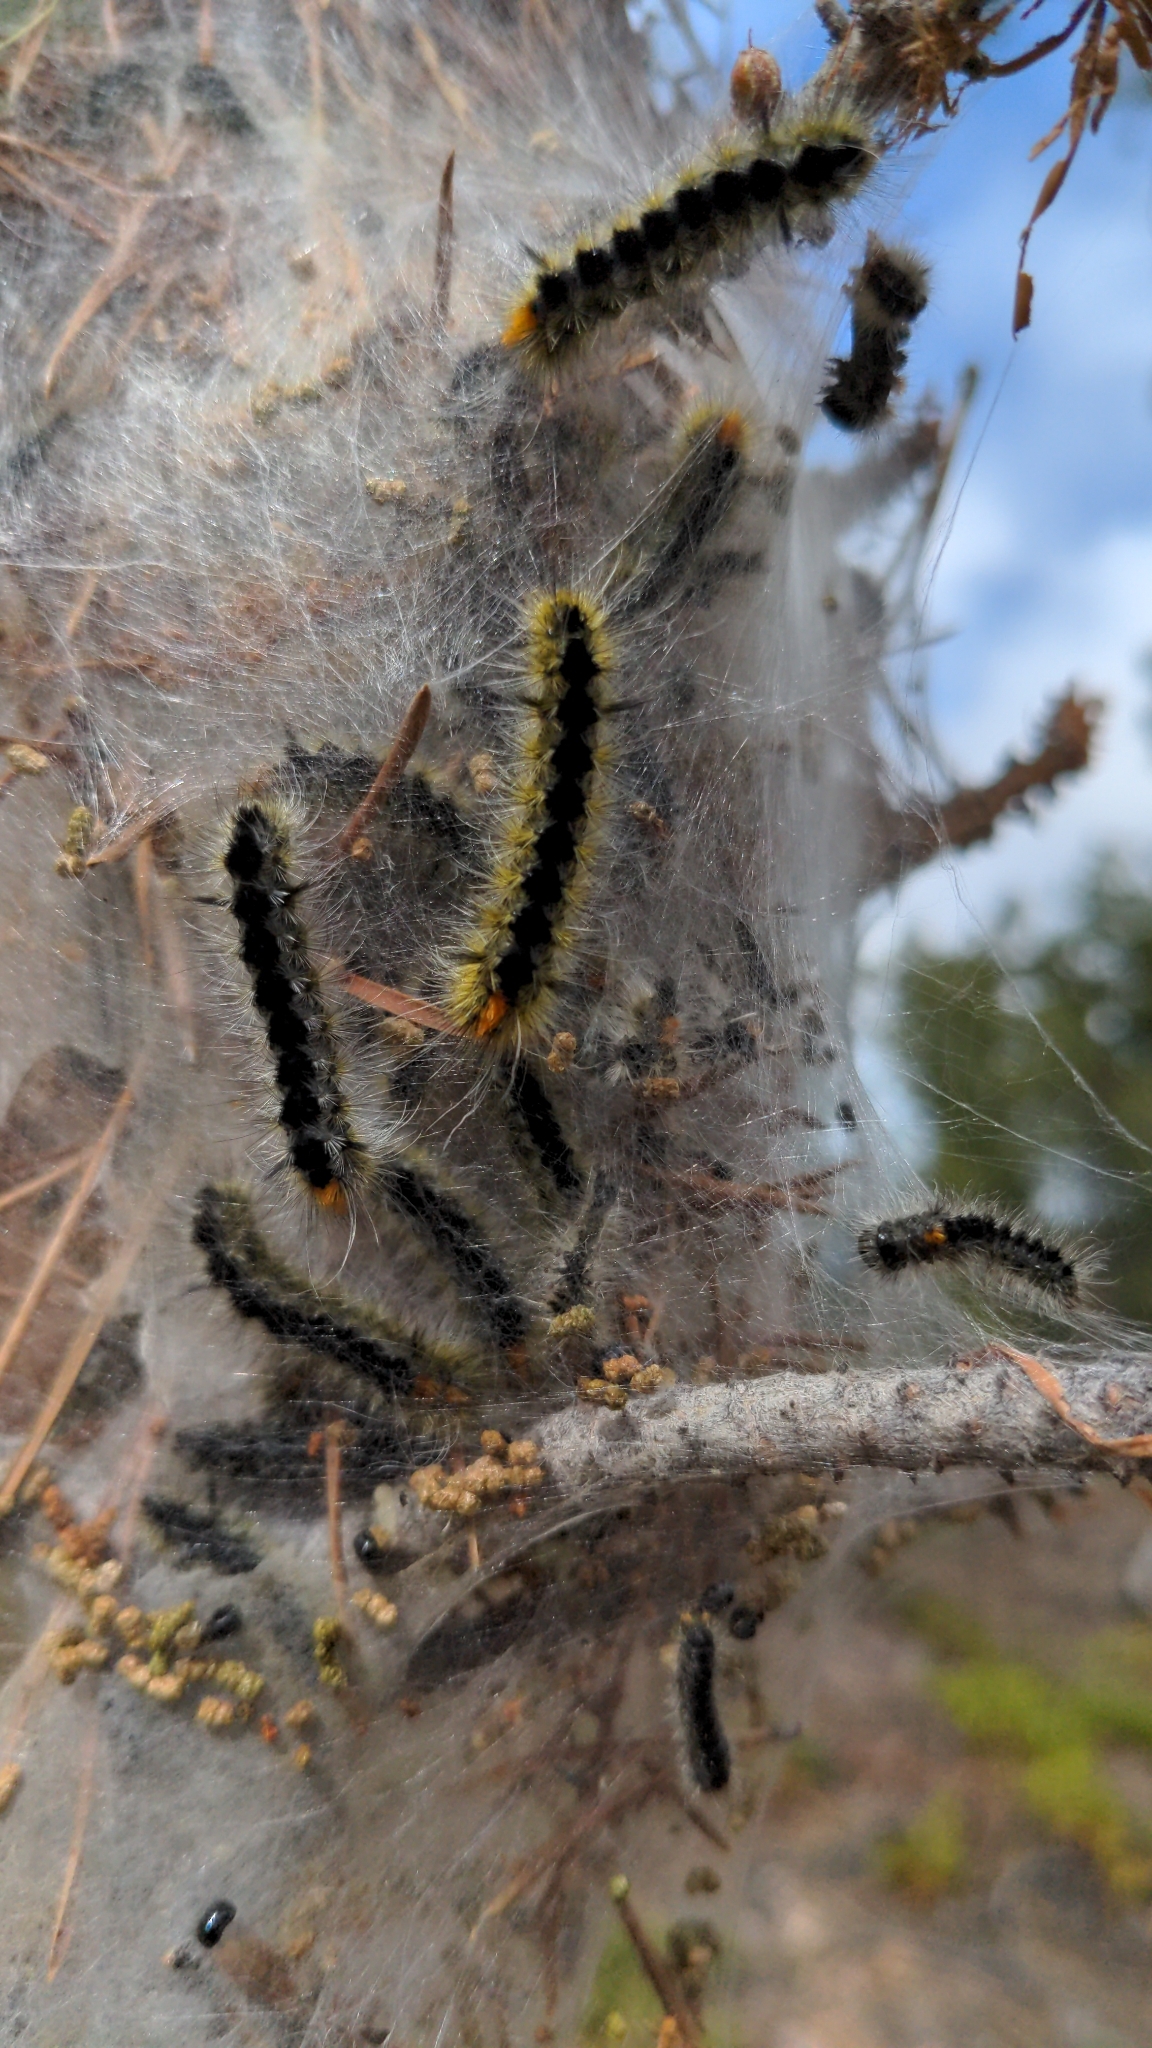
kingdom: Animalia
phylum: Arthropoda
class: Insecta
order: Lepidoptera
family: Erebidae
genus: Lophocampa
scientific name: Lophocampa ingens
